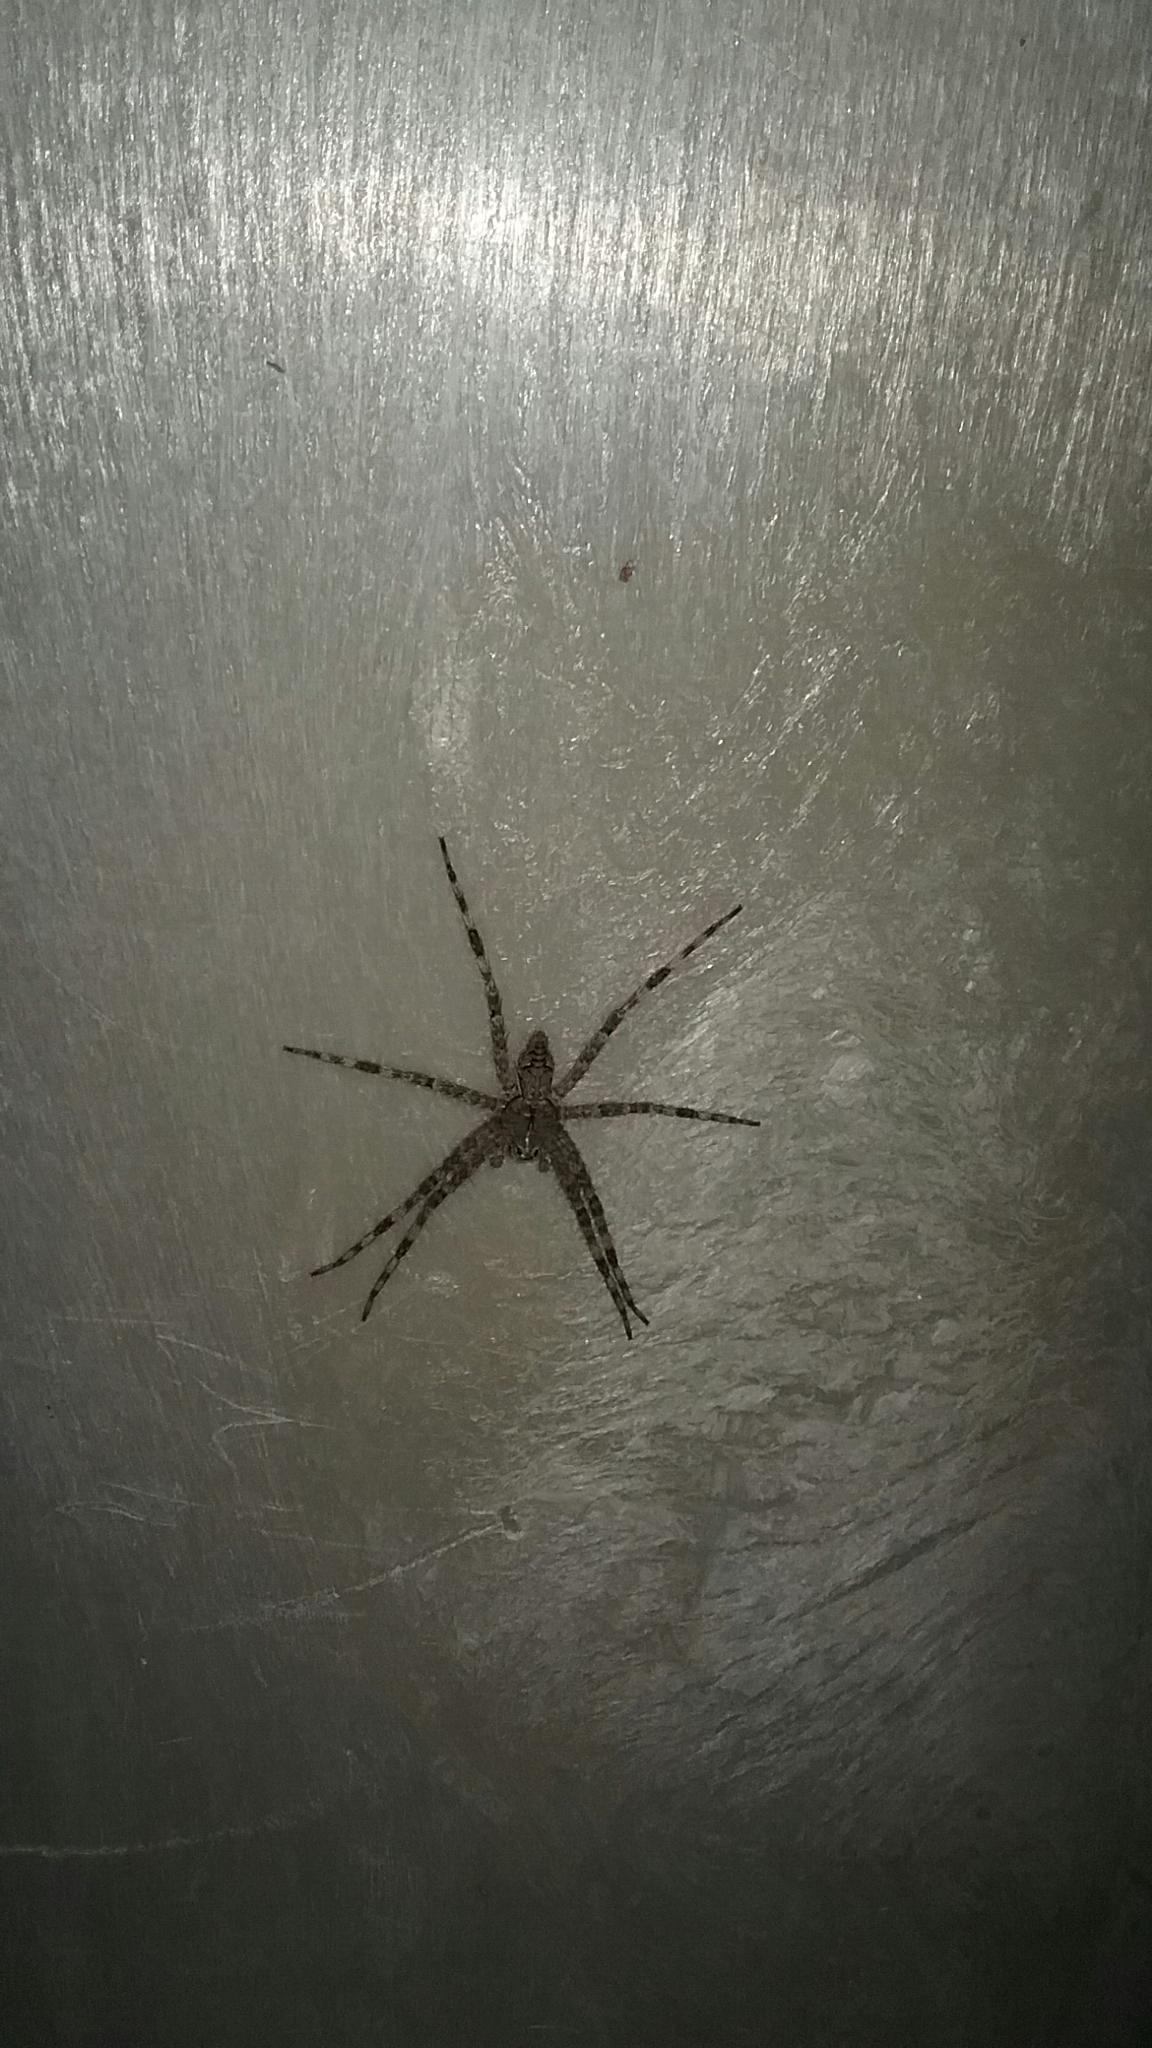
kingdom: Animalia
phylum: Arthropoda
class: Arachnida
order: Araneae
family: Pisauridae
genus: Dolomedes
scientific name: Dolomedes albineus
